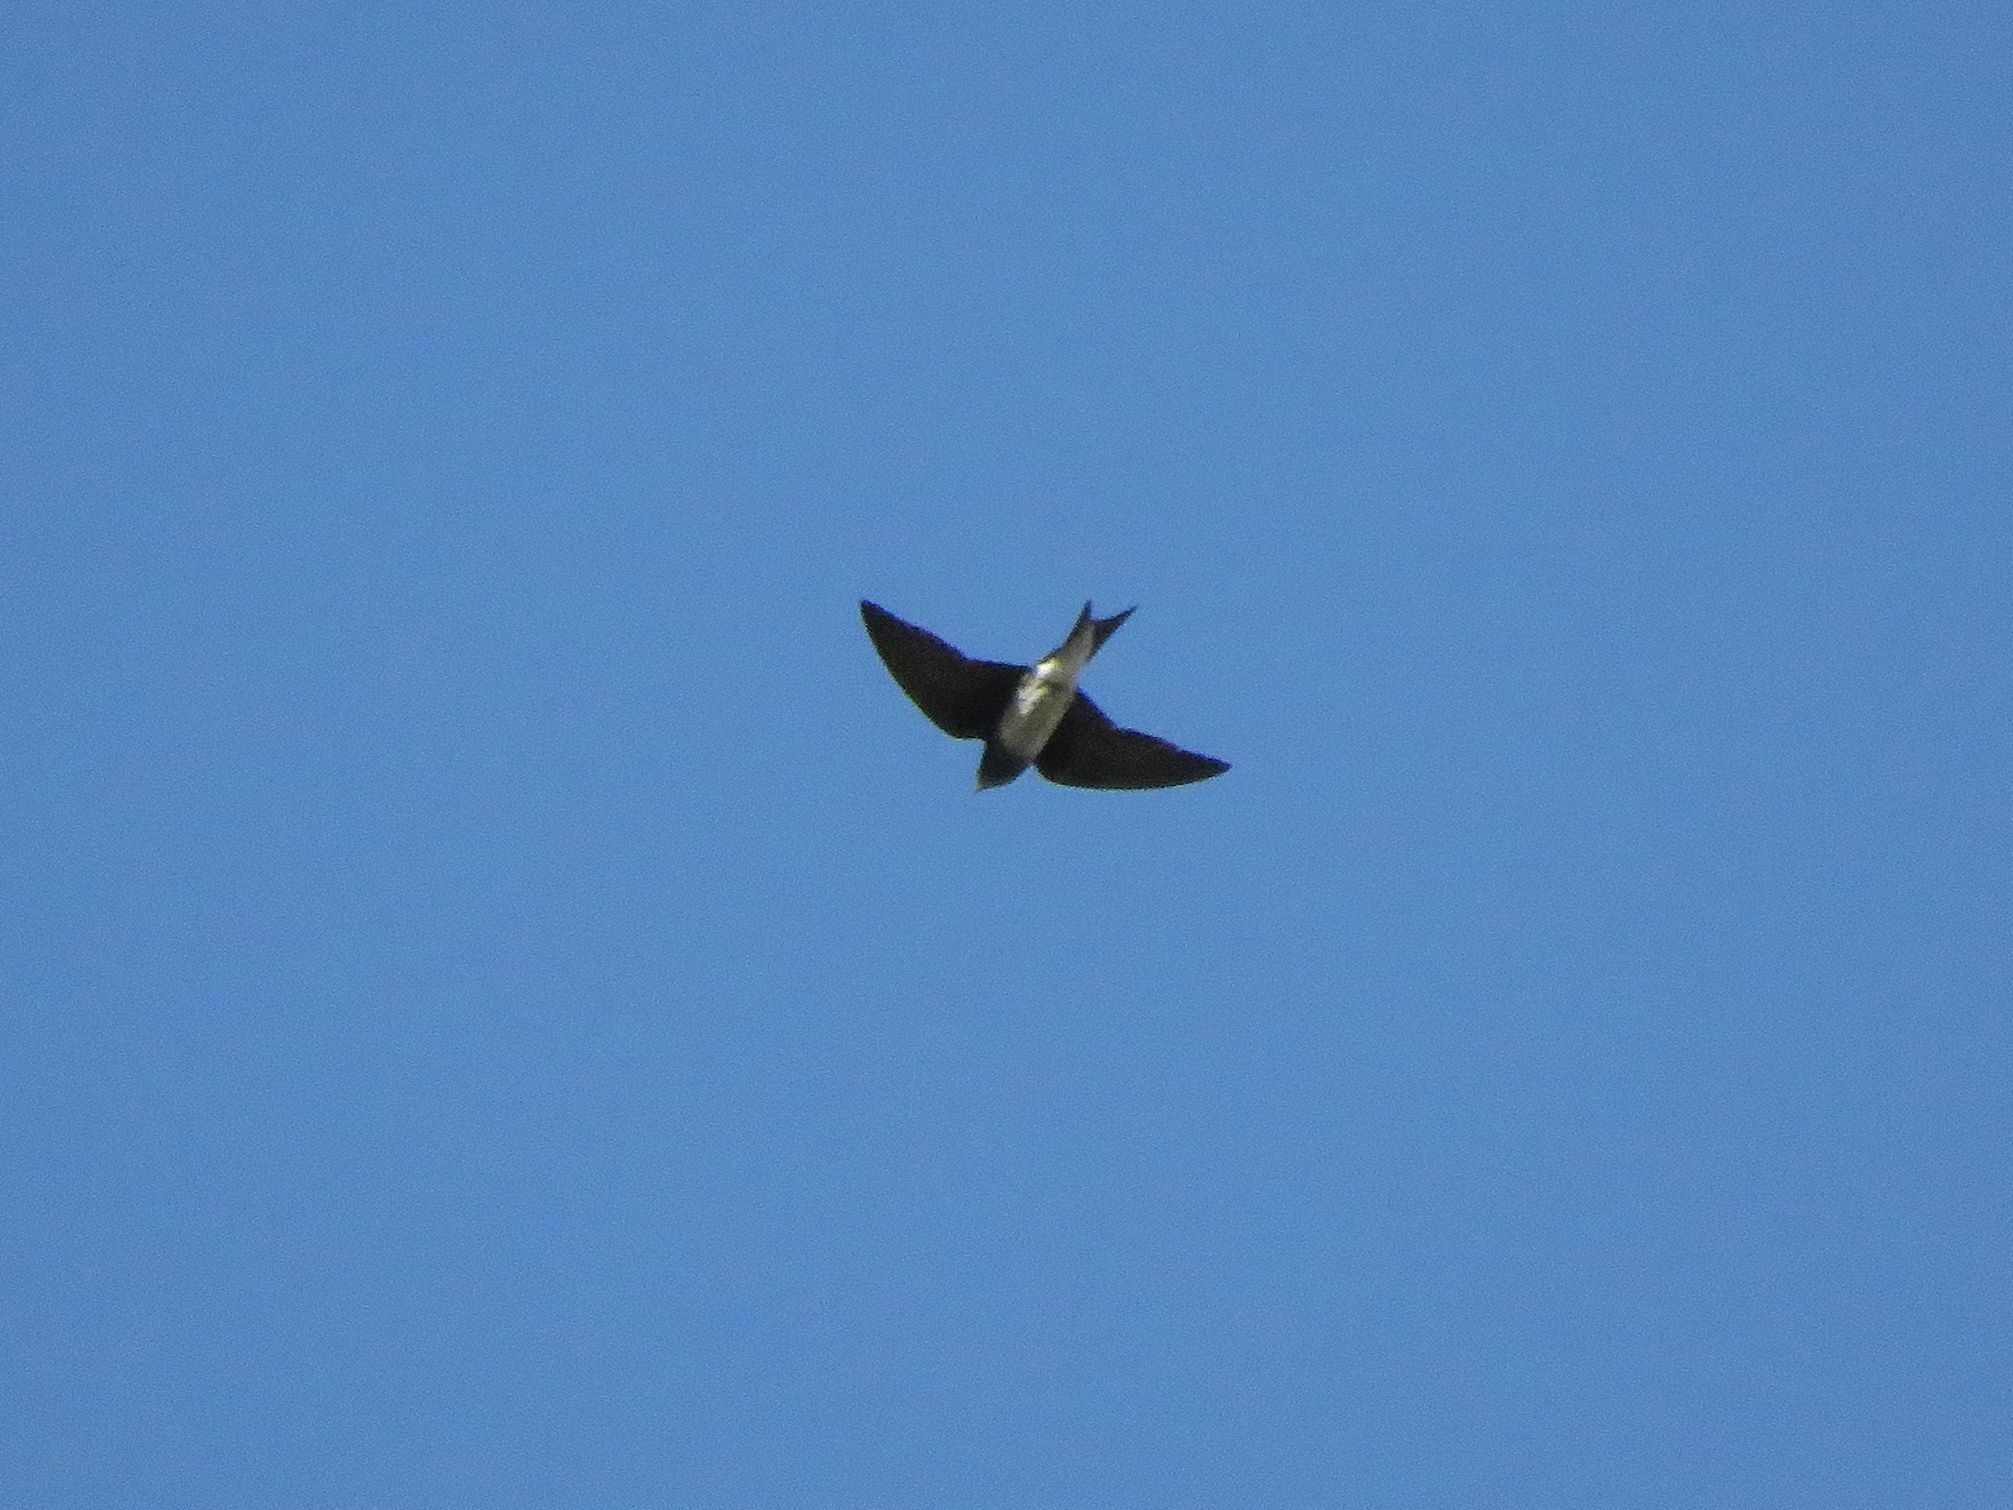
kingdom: Animalia
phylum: Chordata
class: Aves
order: Passeriformes
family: Hirundinidae
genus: Progne
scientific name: Progne chalybea
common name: Grey-breasted martin
